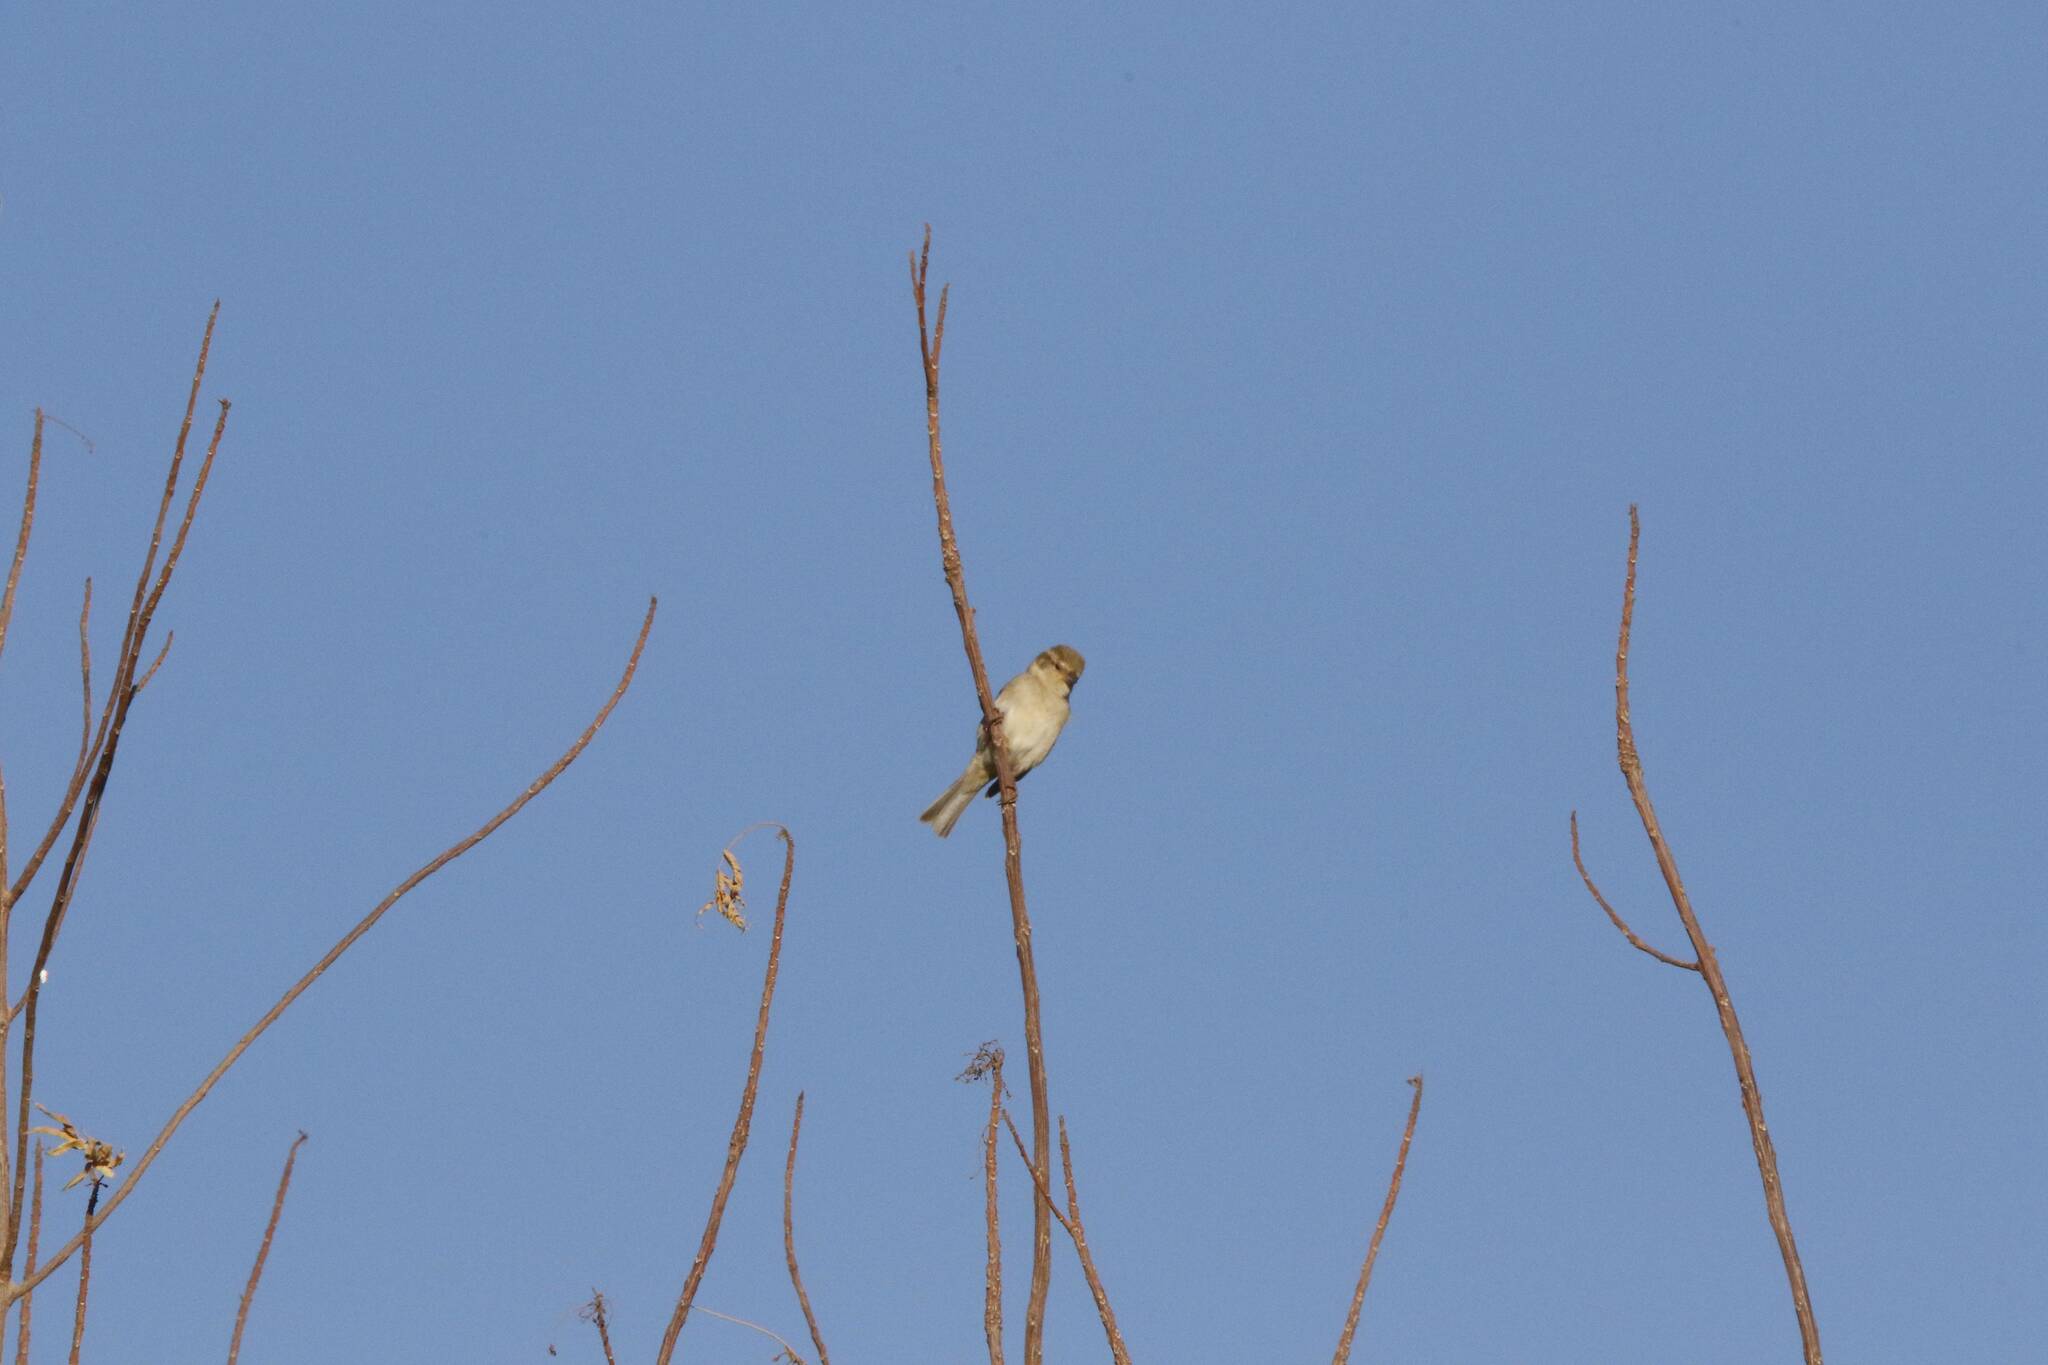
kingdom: Animalia
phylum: Chordata
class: Aves
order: Passeriformes
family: Passeridae
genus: Passer
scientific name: Passer domesticus
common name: House sparrow
